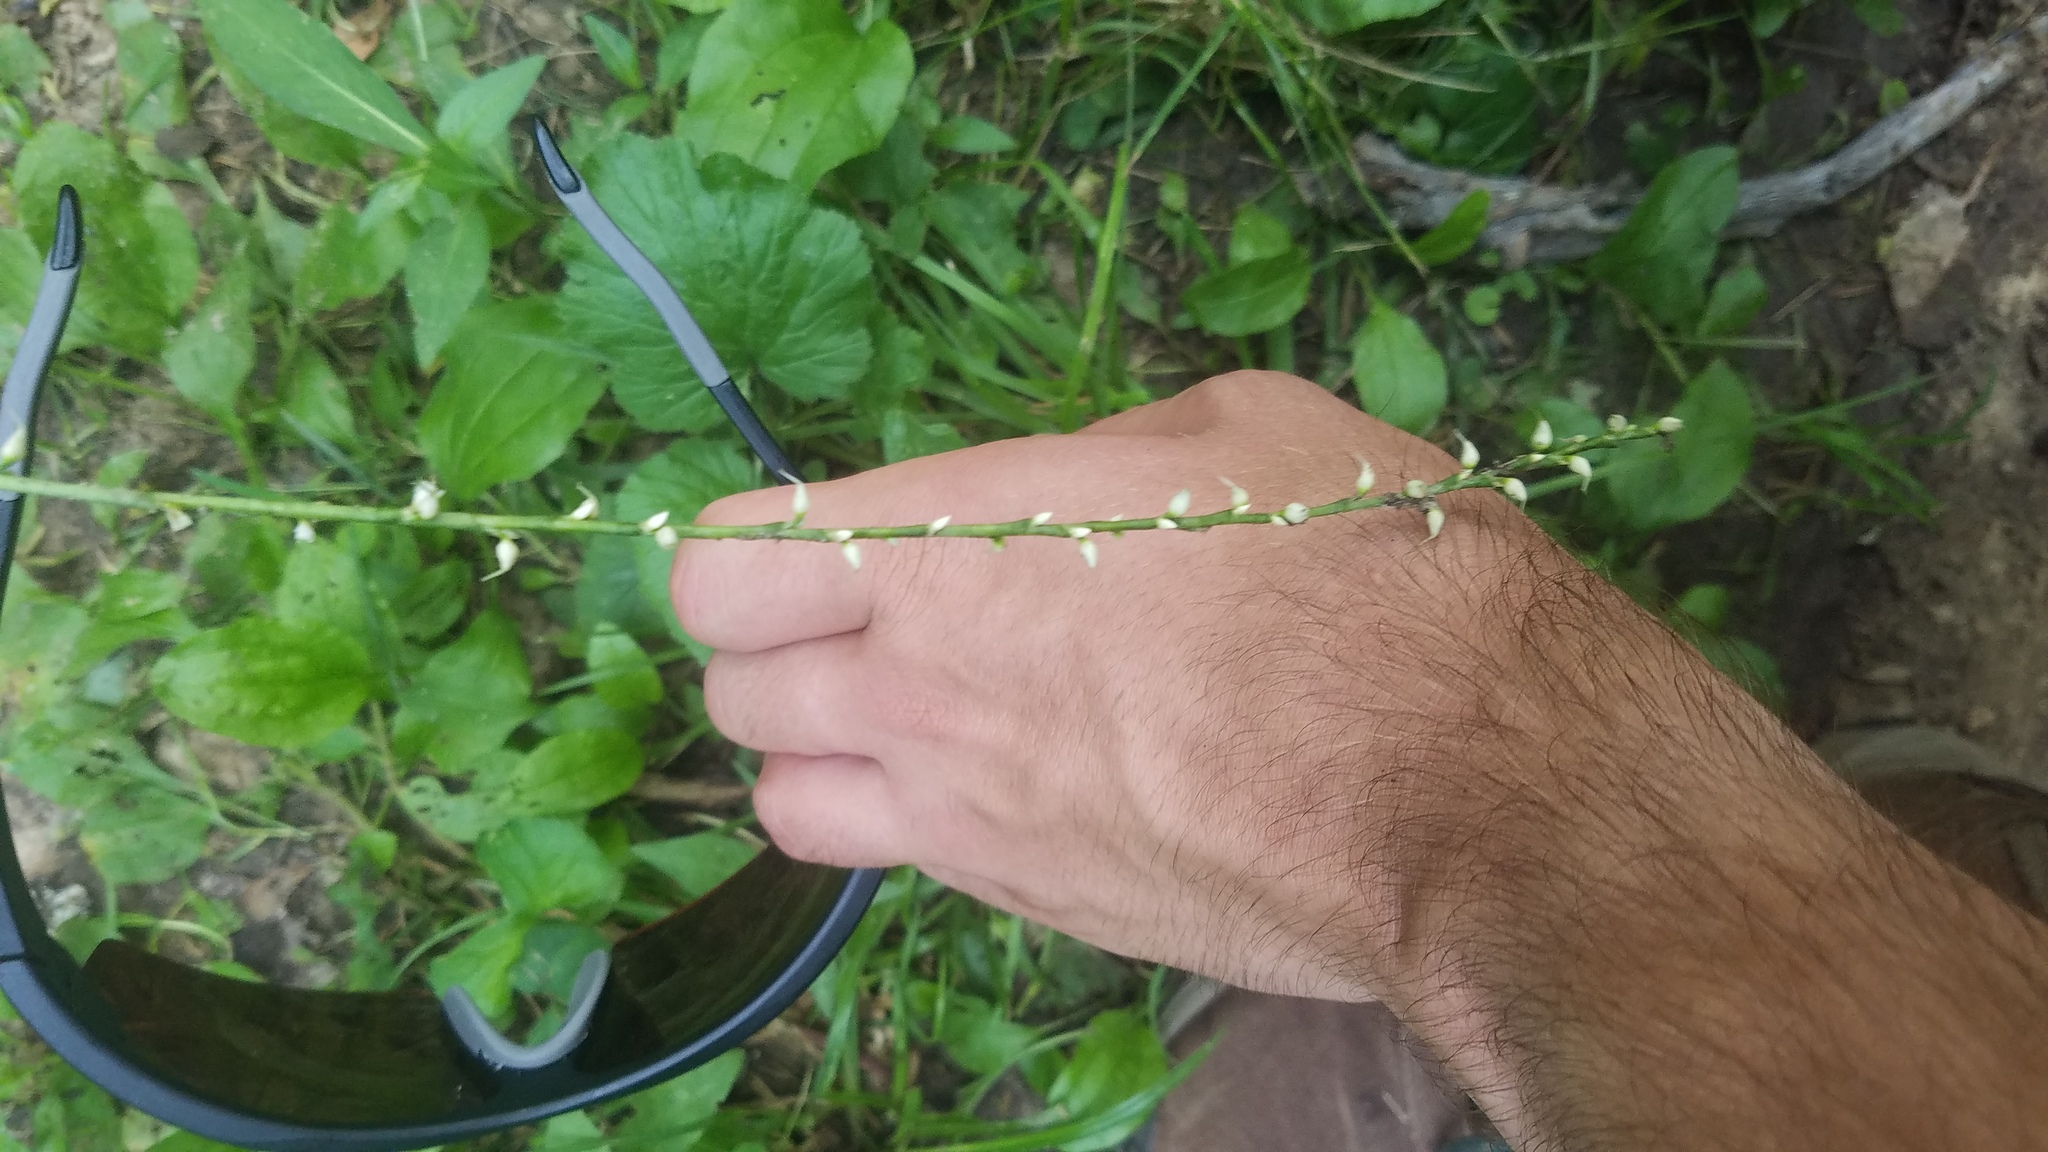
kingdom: Plantae
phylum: Tracheophyta
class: Magnoliopsida
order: Caryophyllales
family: Polygonaceae
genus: Persicaria
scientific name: Persicaria virginiana
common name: Jumpseed
